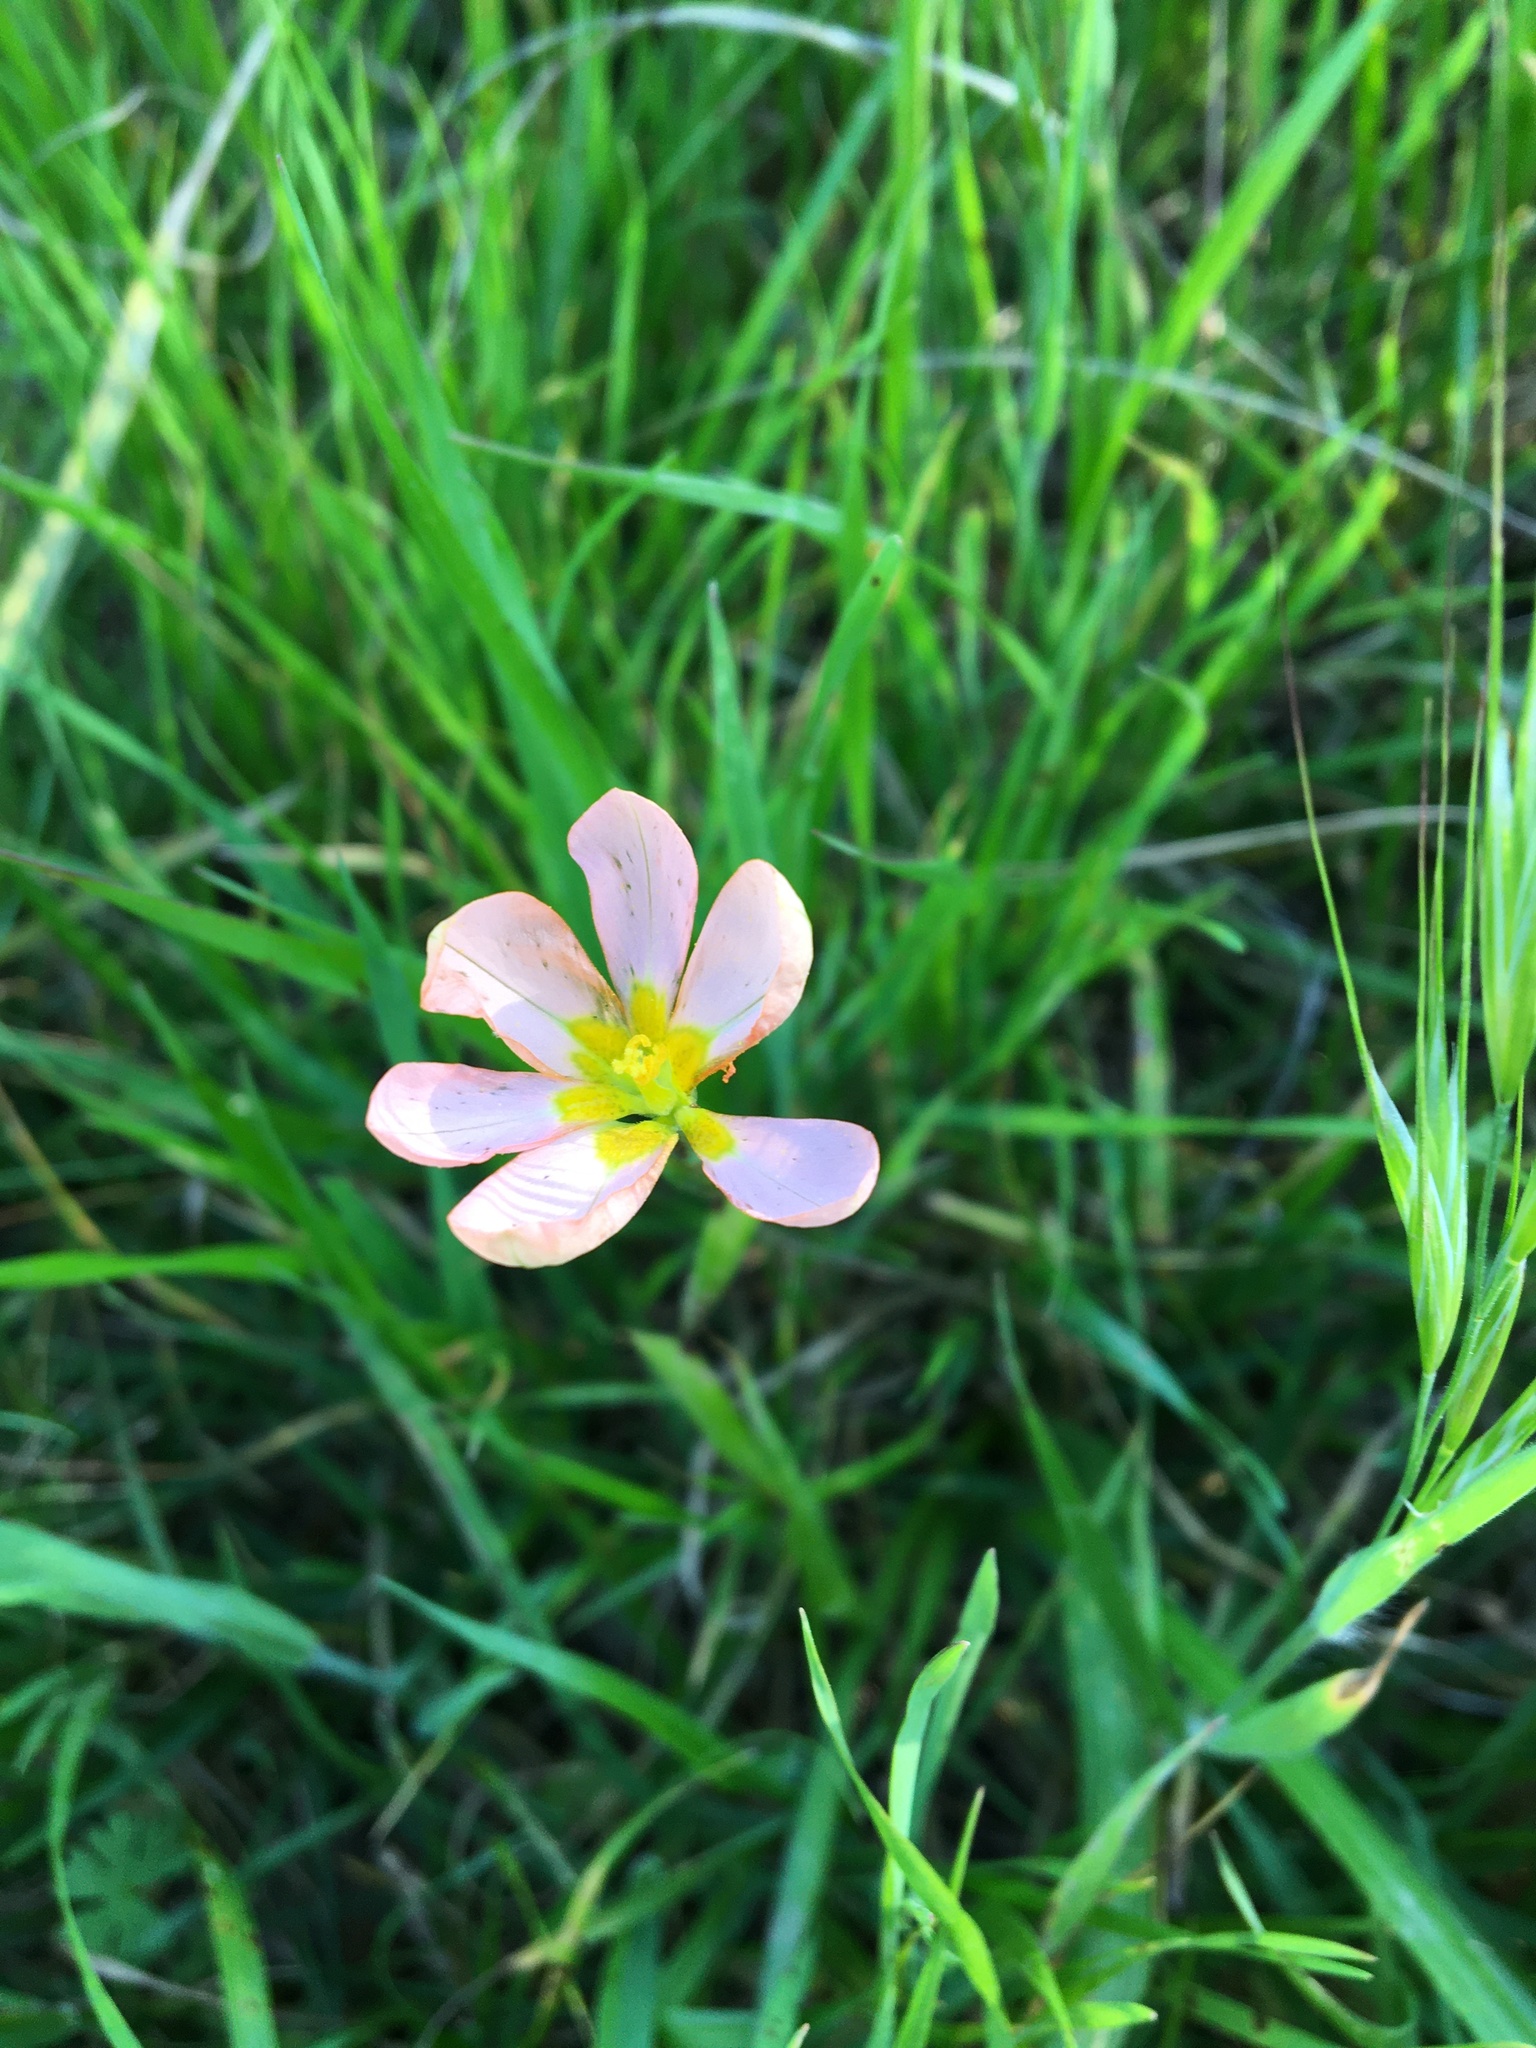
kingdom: Plantae
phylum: Tracheophyta
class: Liliopsida
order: Asparagales
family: Iridaceae
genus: Moraea
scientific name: Moraea miniata
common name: Two-leaf cape-tulip
